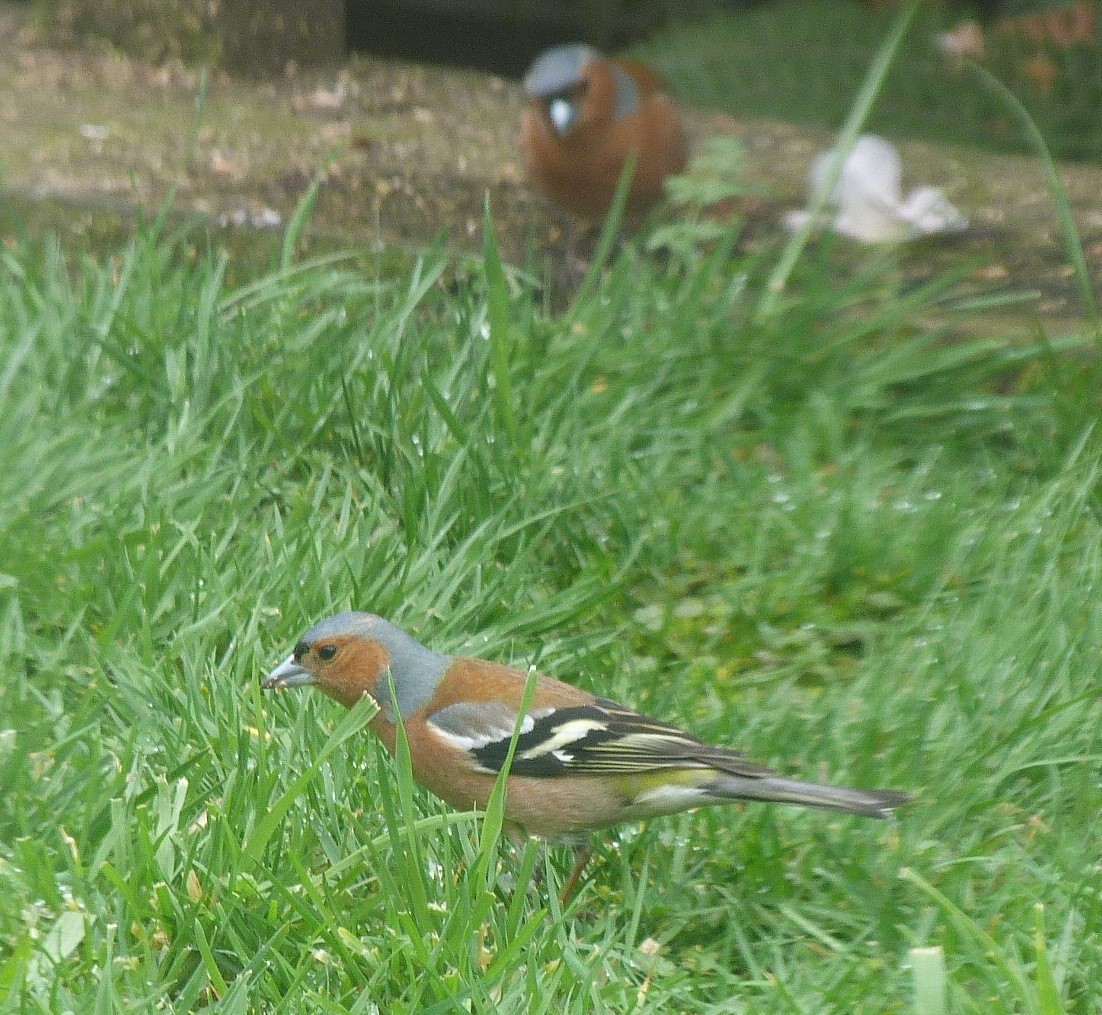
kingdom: Animalia
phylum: Chordata
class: Aves
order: Passeriformes
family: Fringillidae
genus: Fringilla
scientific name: Fringilla coelebs
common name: Common chaffinch
